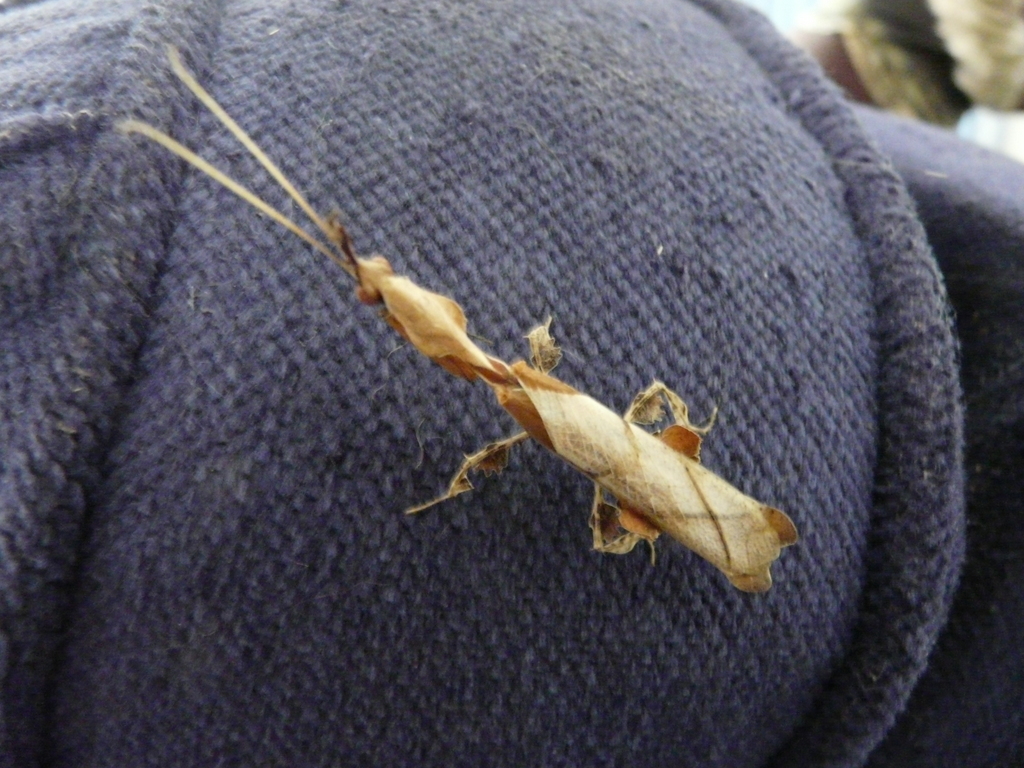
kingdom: Animalia
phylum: Arthropoda
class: Insecta
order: Mantodea
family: Hymenopodidae
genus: Phyllocrania
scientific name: Phyllocrania paradoxa
